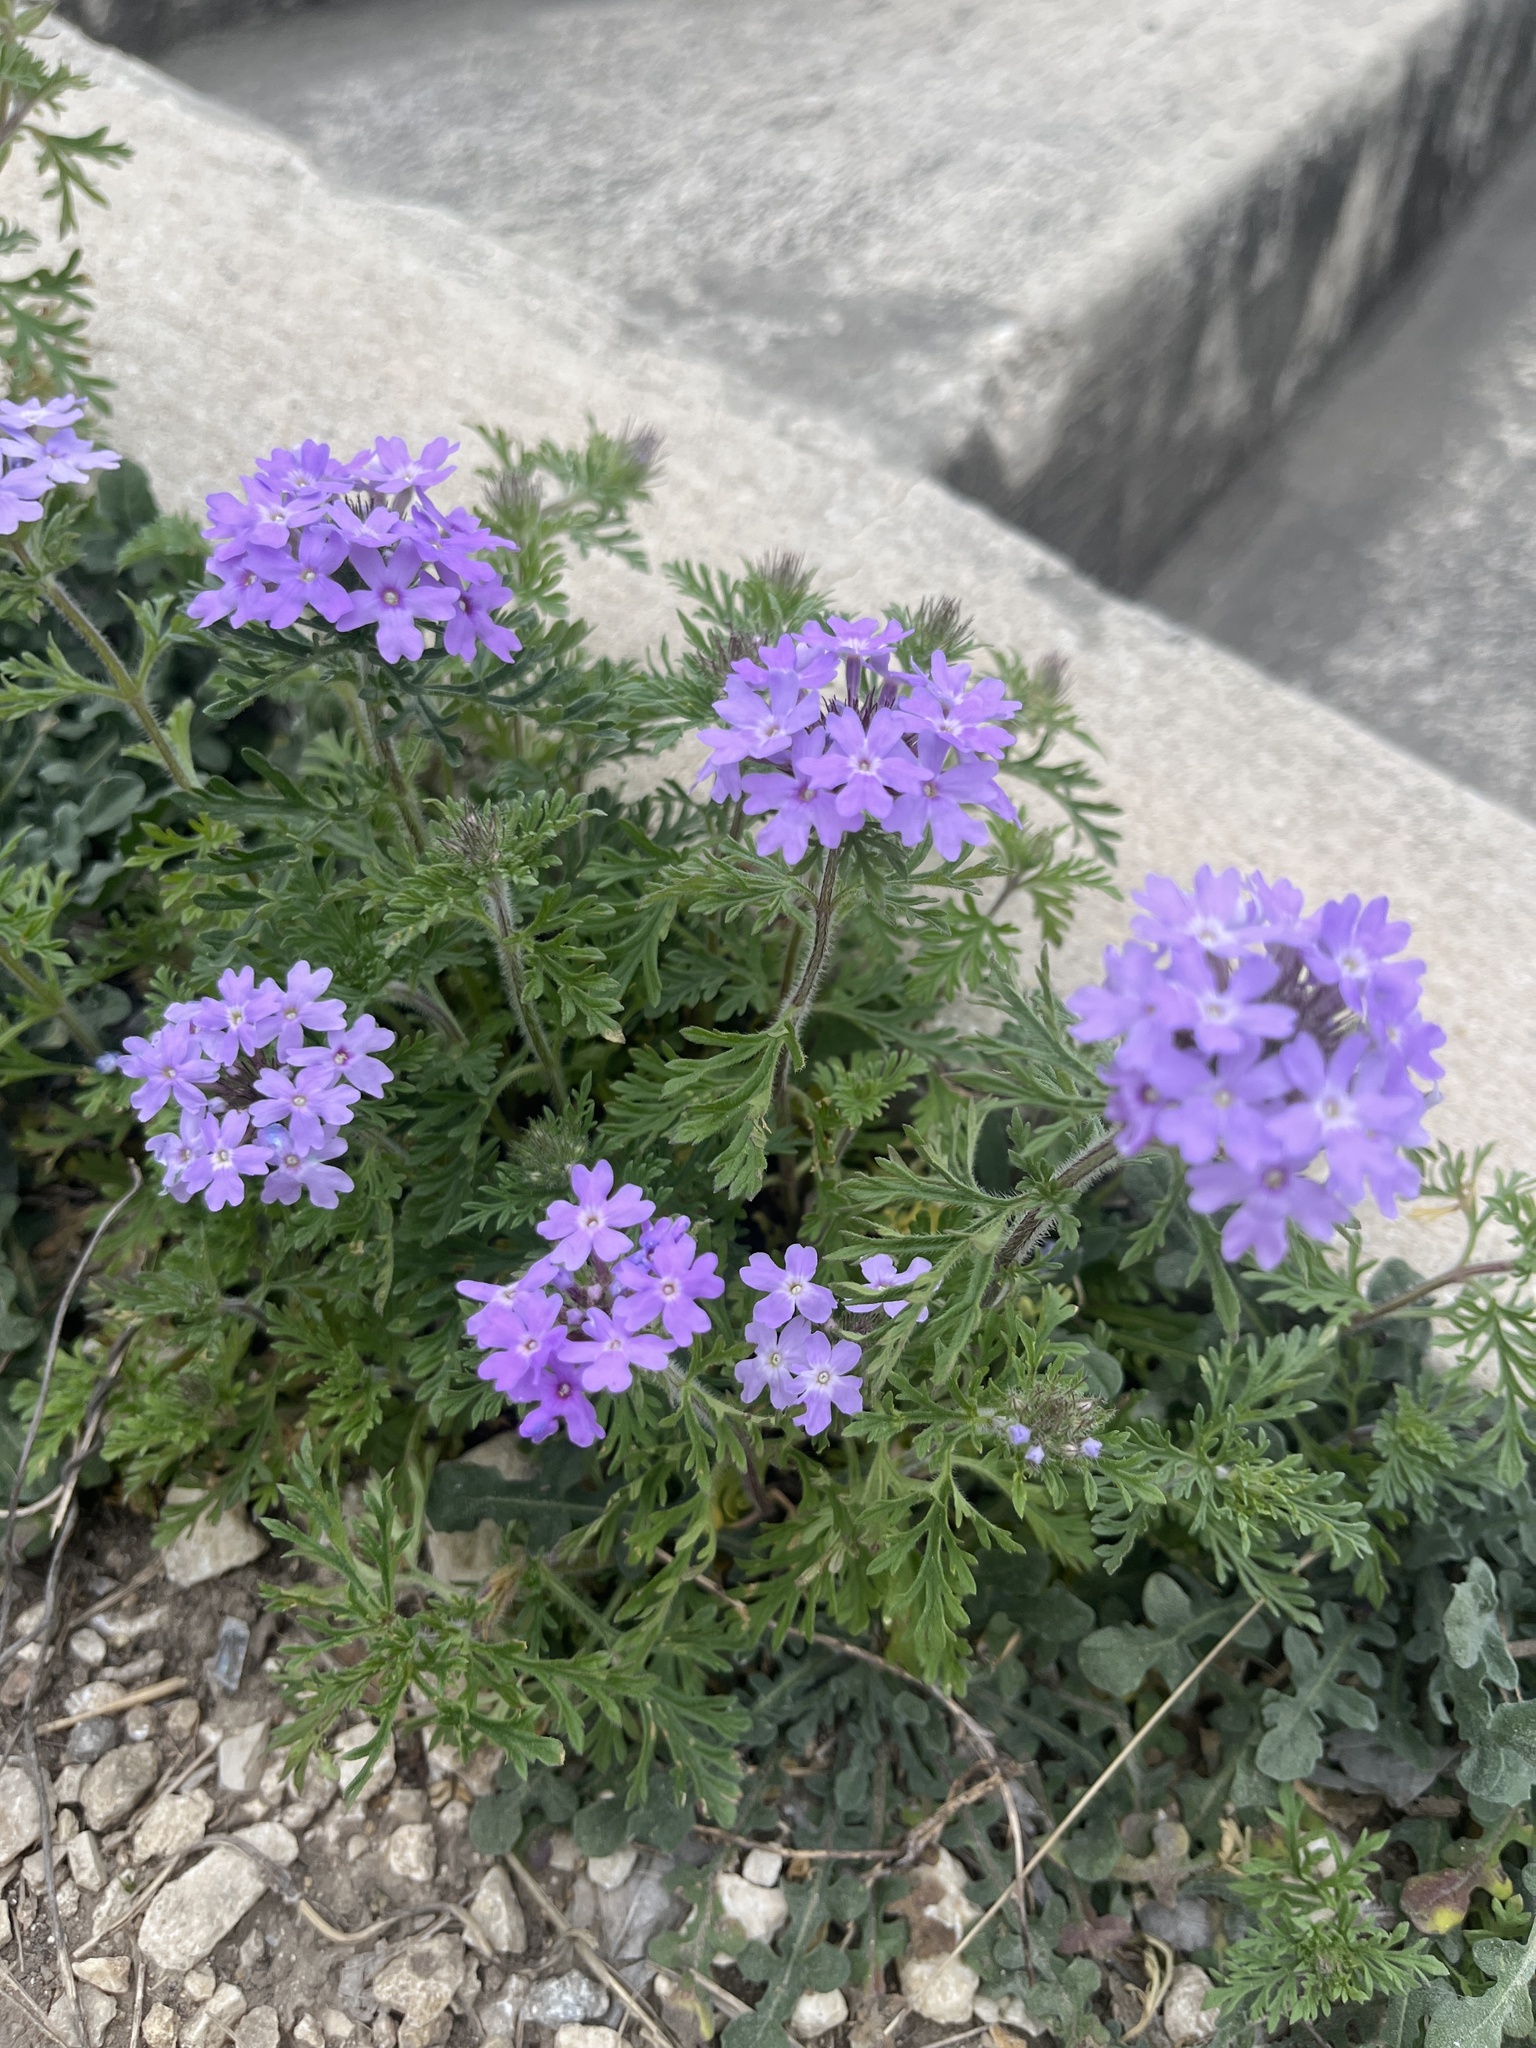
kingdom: Plantae
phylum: Tracheophyta
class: Magnoliopsida
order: Lamiales
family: Verbenaceae
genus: Verbena
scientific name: Verbena bipinnatifida
